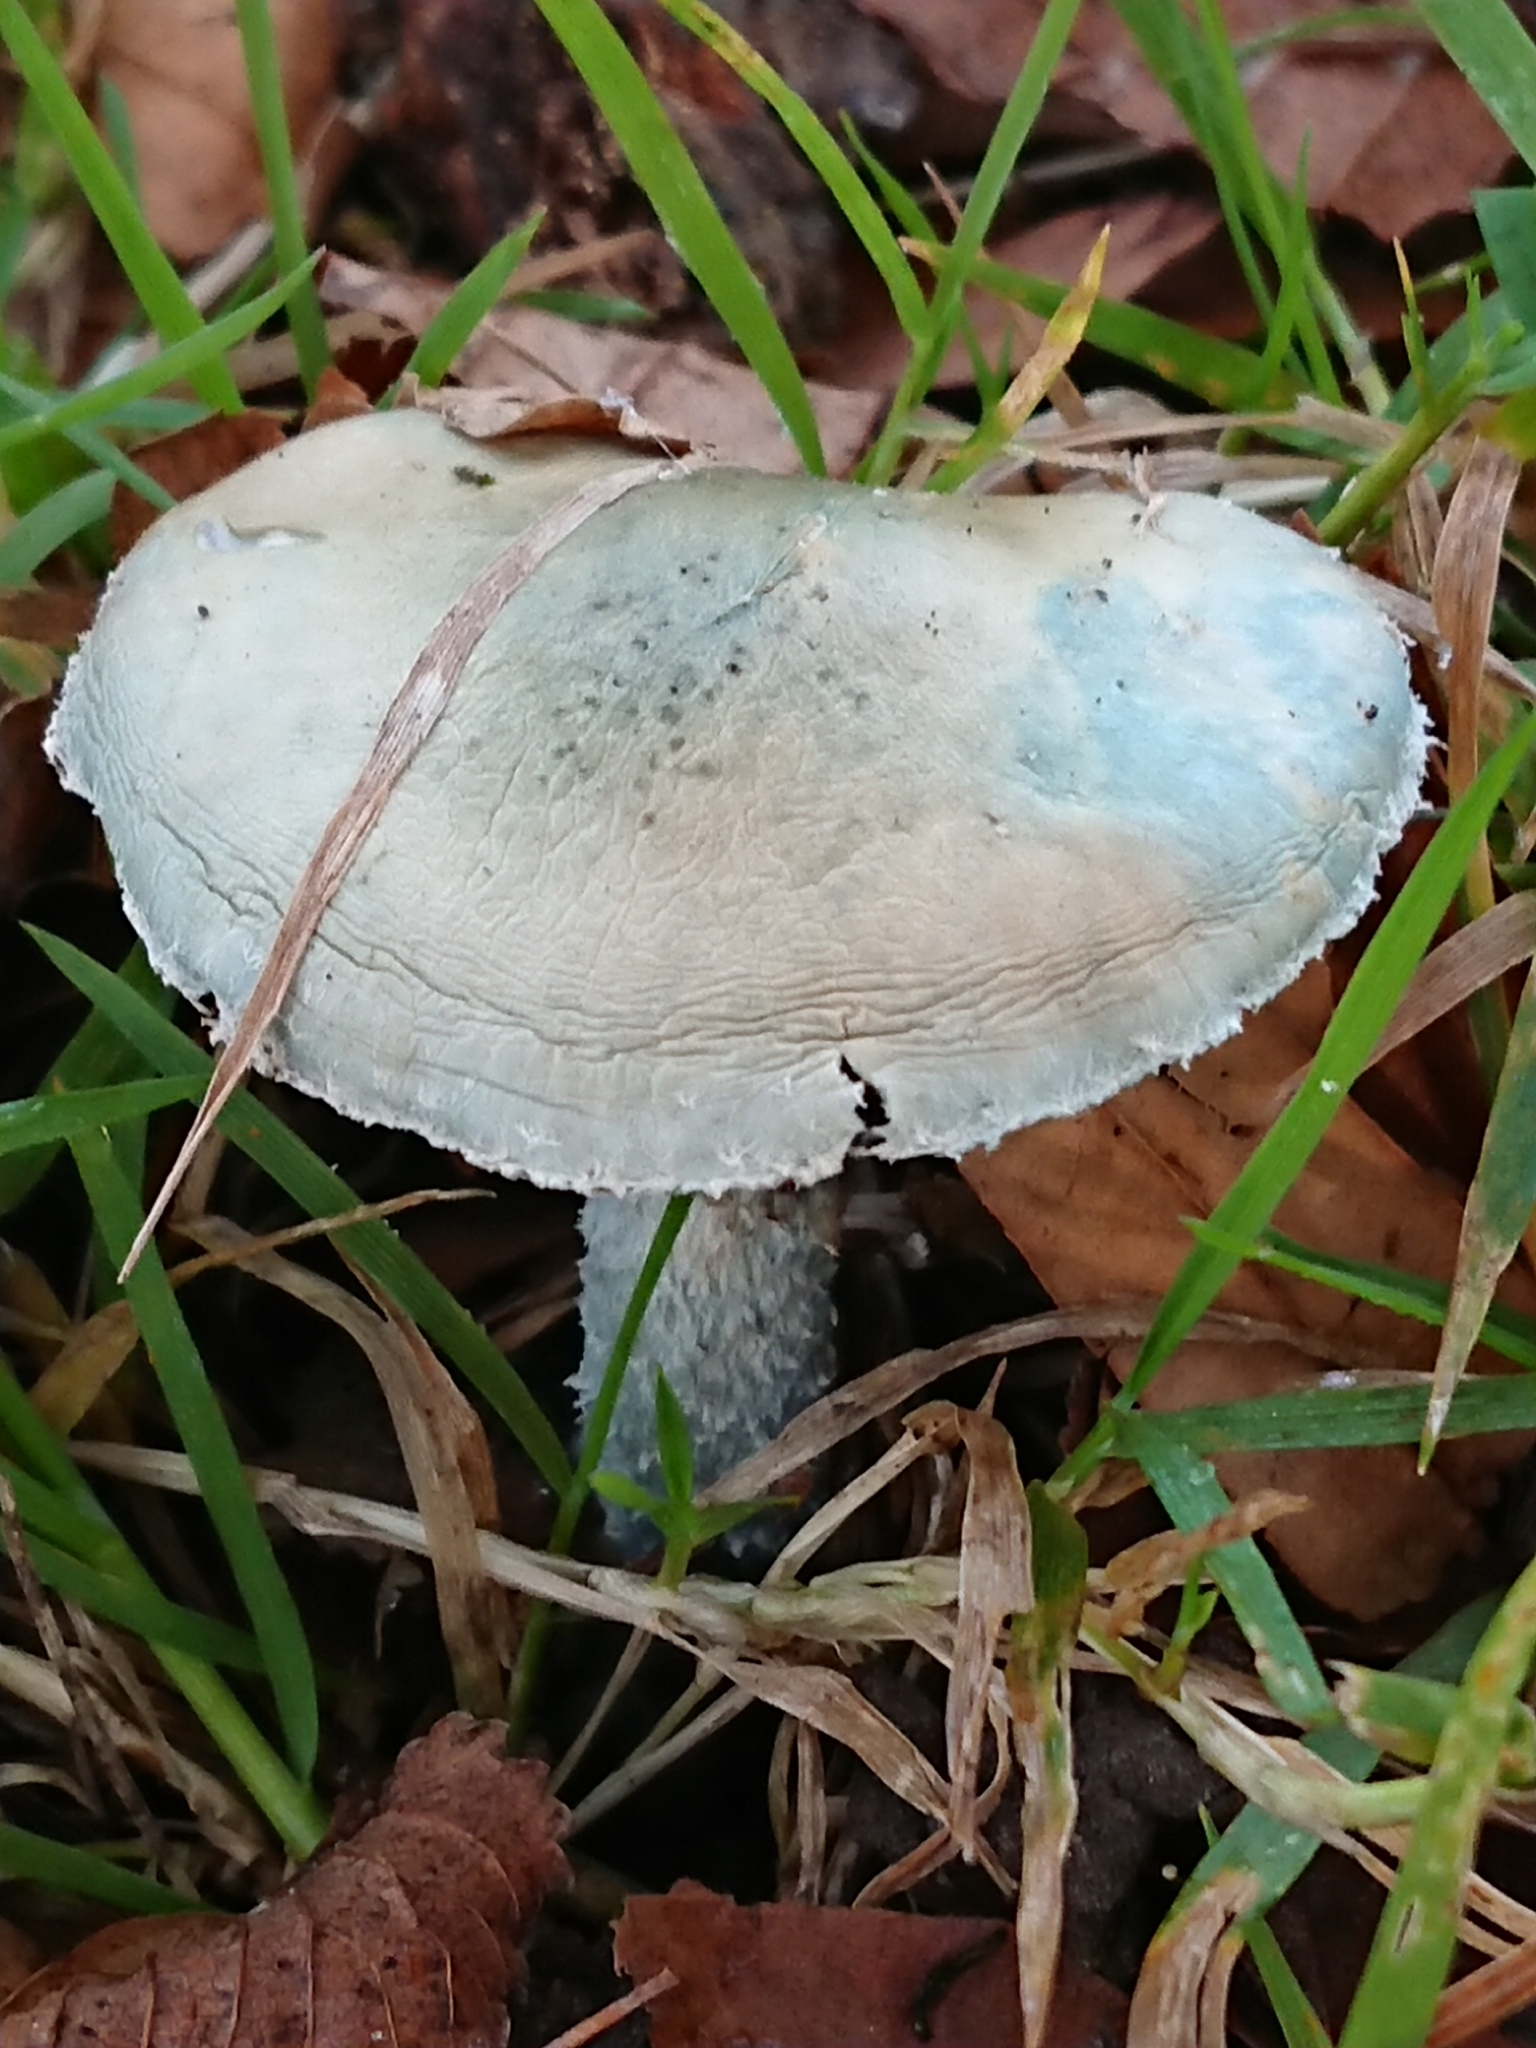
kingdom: Fungi
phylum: Basidiomycota
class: Agaricomycetes
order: Agaricales
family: Strophariaceae
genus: Stropharia
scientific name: Stropharia caerulea
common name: Blue roundhead
